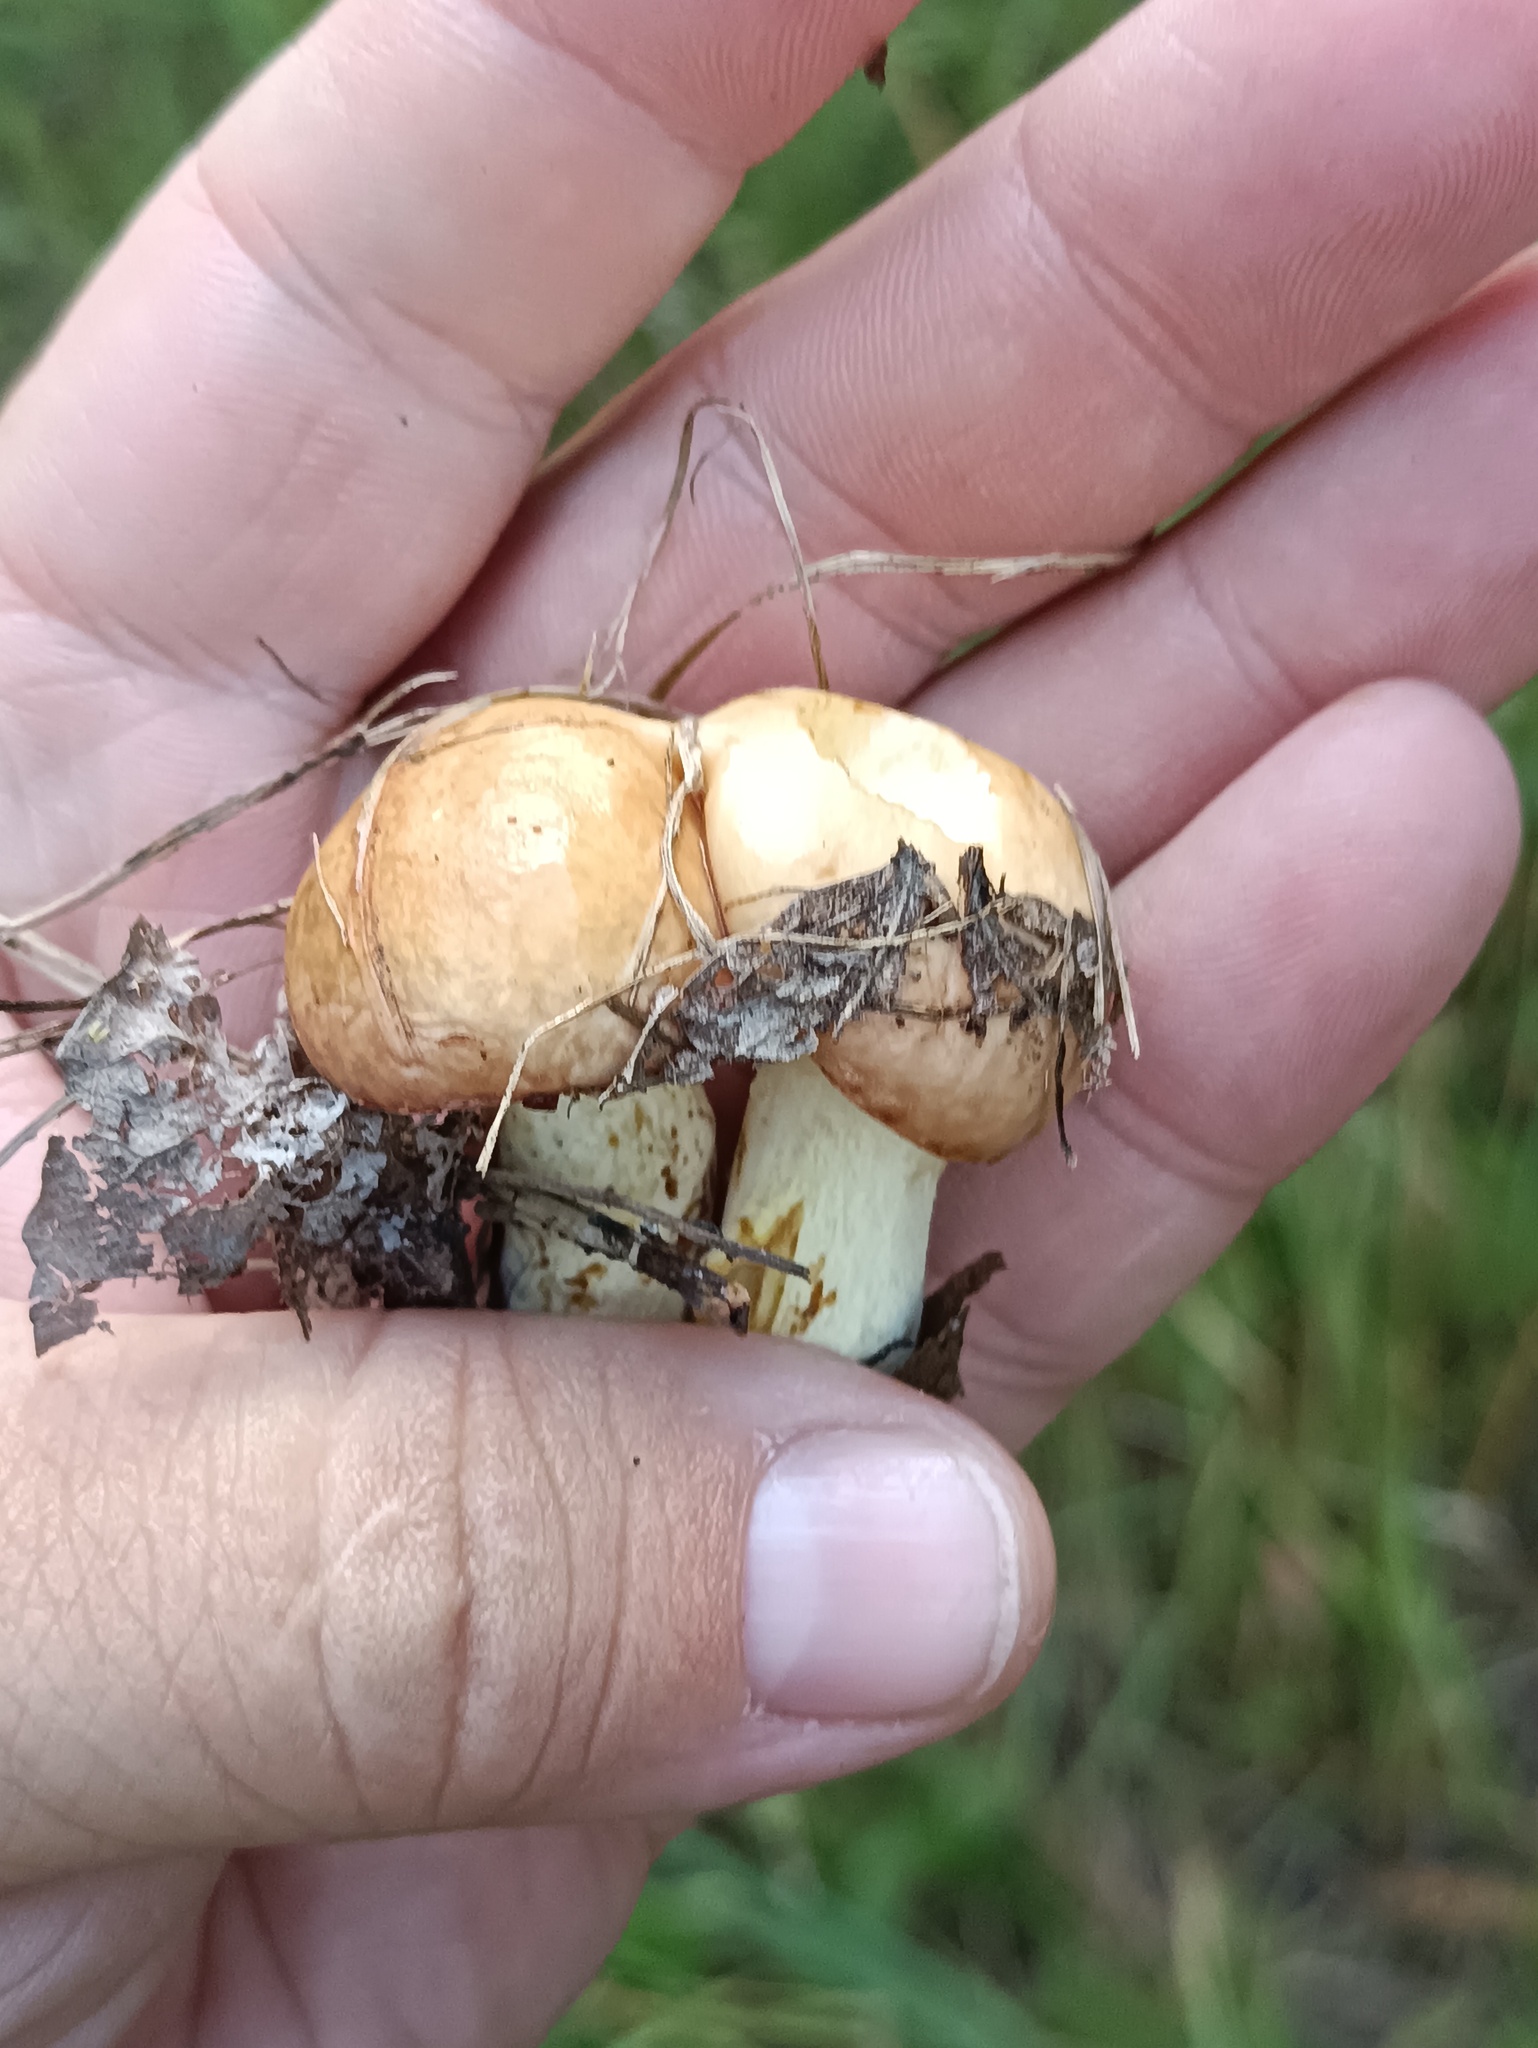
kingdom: Fungi
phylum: Basidiomycota
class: Agaricomycetes
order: Boletales
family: Suillaceae
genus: Suillus
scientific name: Suillus granulatus
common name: Weeping bolete
